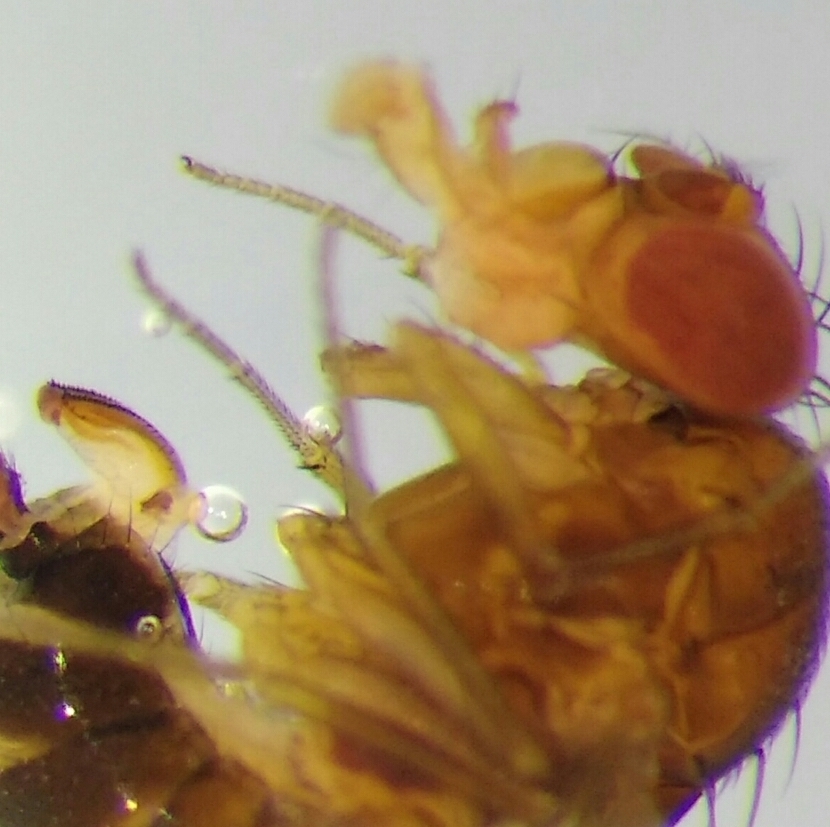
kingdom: Animalia
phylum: Arthropoda
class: Insecta
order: Diptera
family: Drosophilidae
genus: Drosophila
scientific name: Drosophila suzukii
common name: Spotted-wing drosophila
